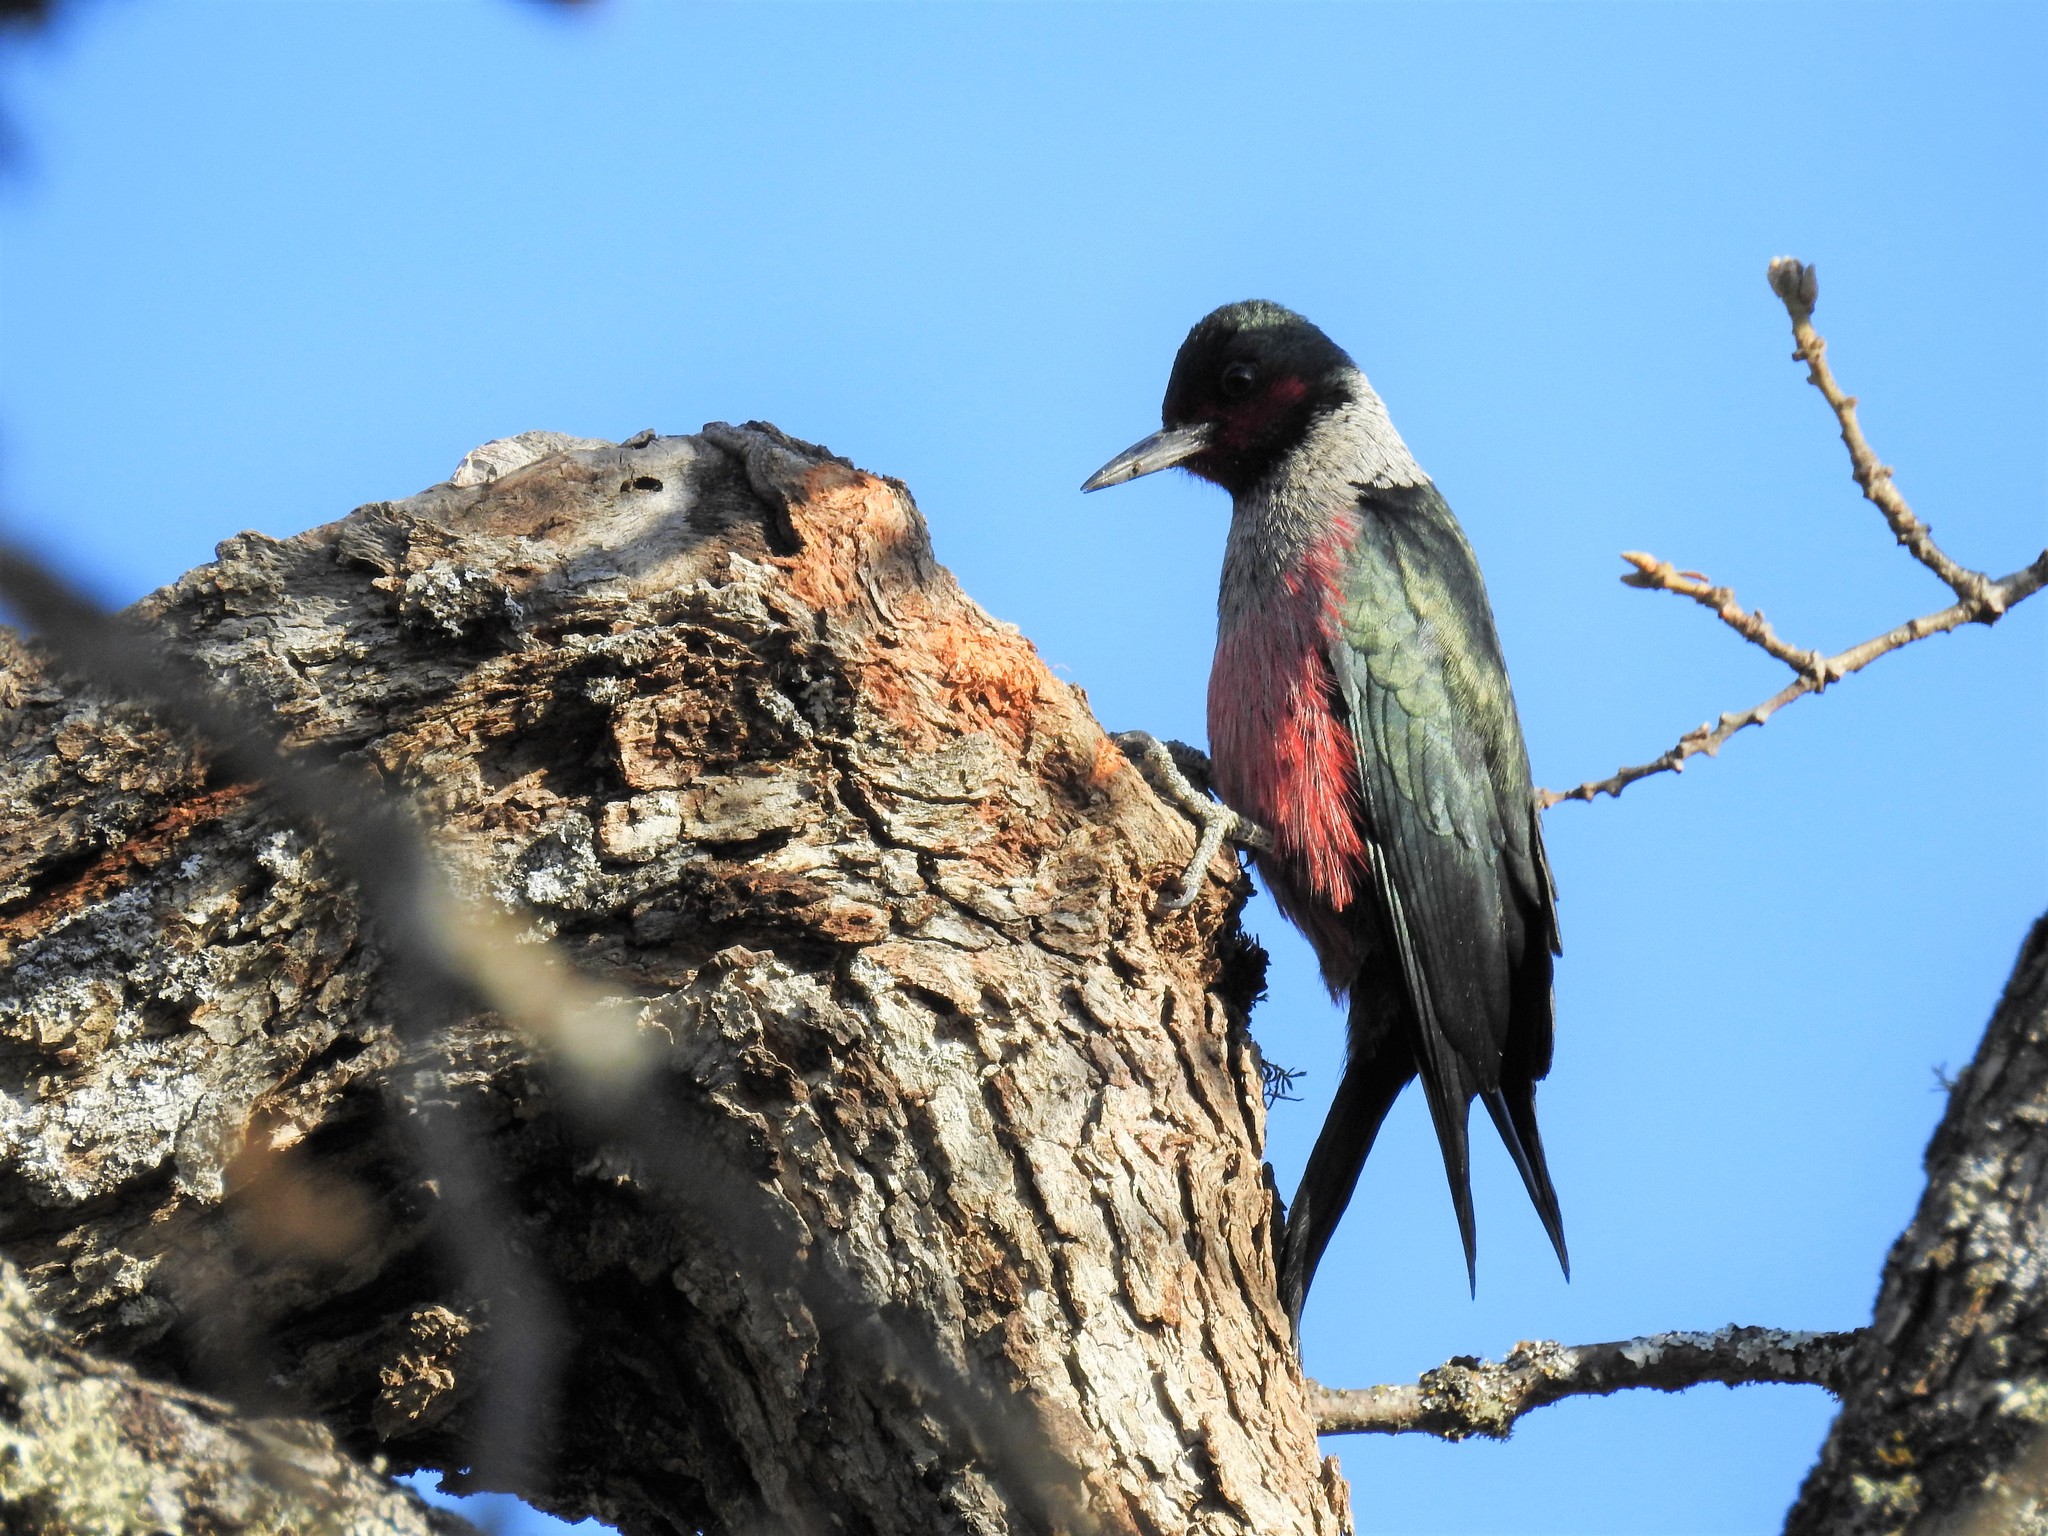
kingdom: Animalia
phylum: Chordata
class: Aves
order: Piciformes
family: Picidae
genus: Melanerpes
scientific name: Melanerpes lewis
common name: Lewis's woodpecker
